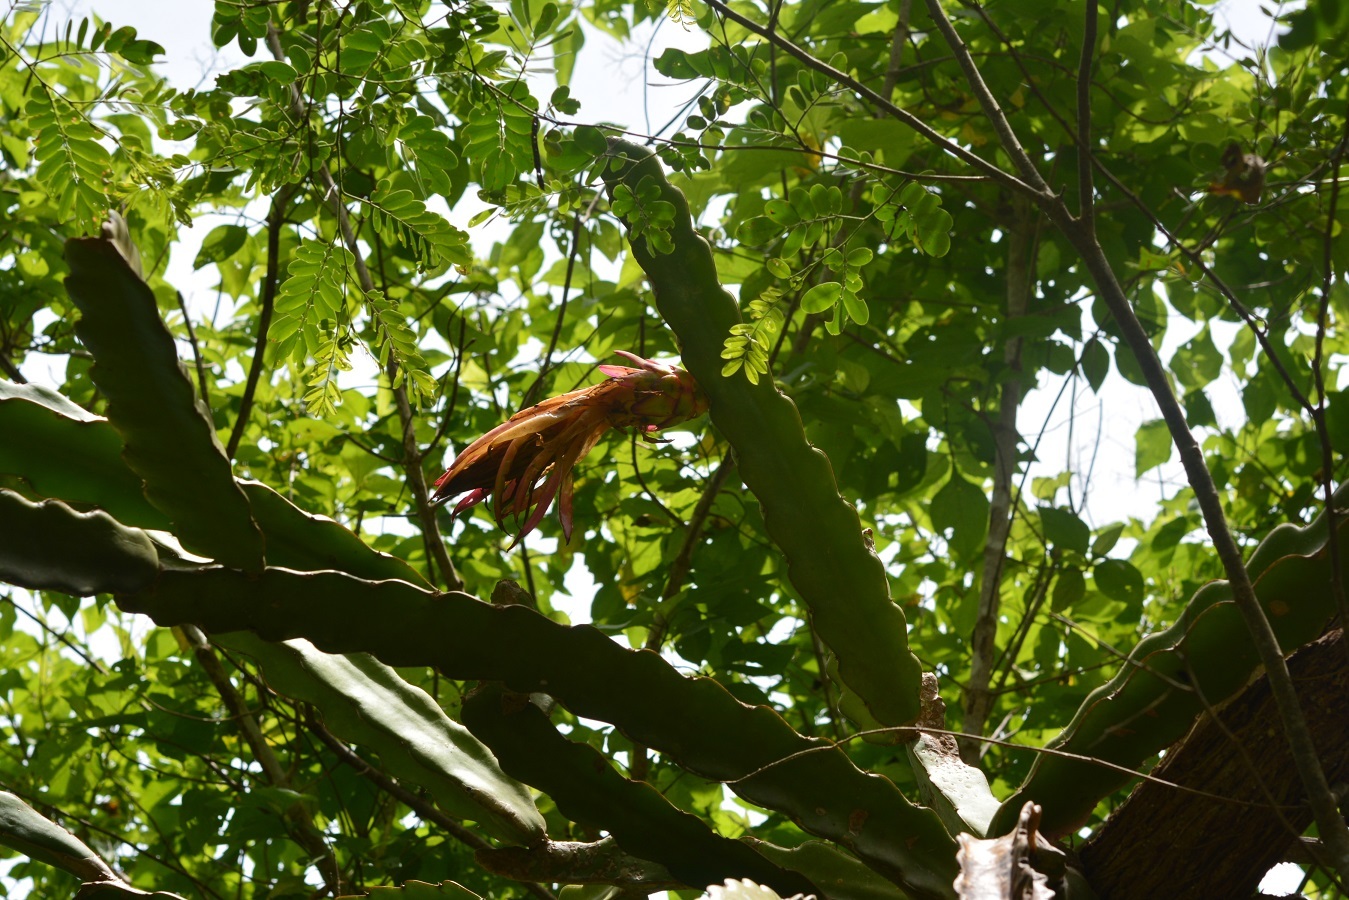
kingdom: Plantae
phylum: Tracheophyta
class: Magnoliopsida
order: Caryophyllales
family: Cactaceae
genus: Selenicereus
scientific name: Selenicereus ocamponis
